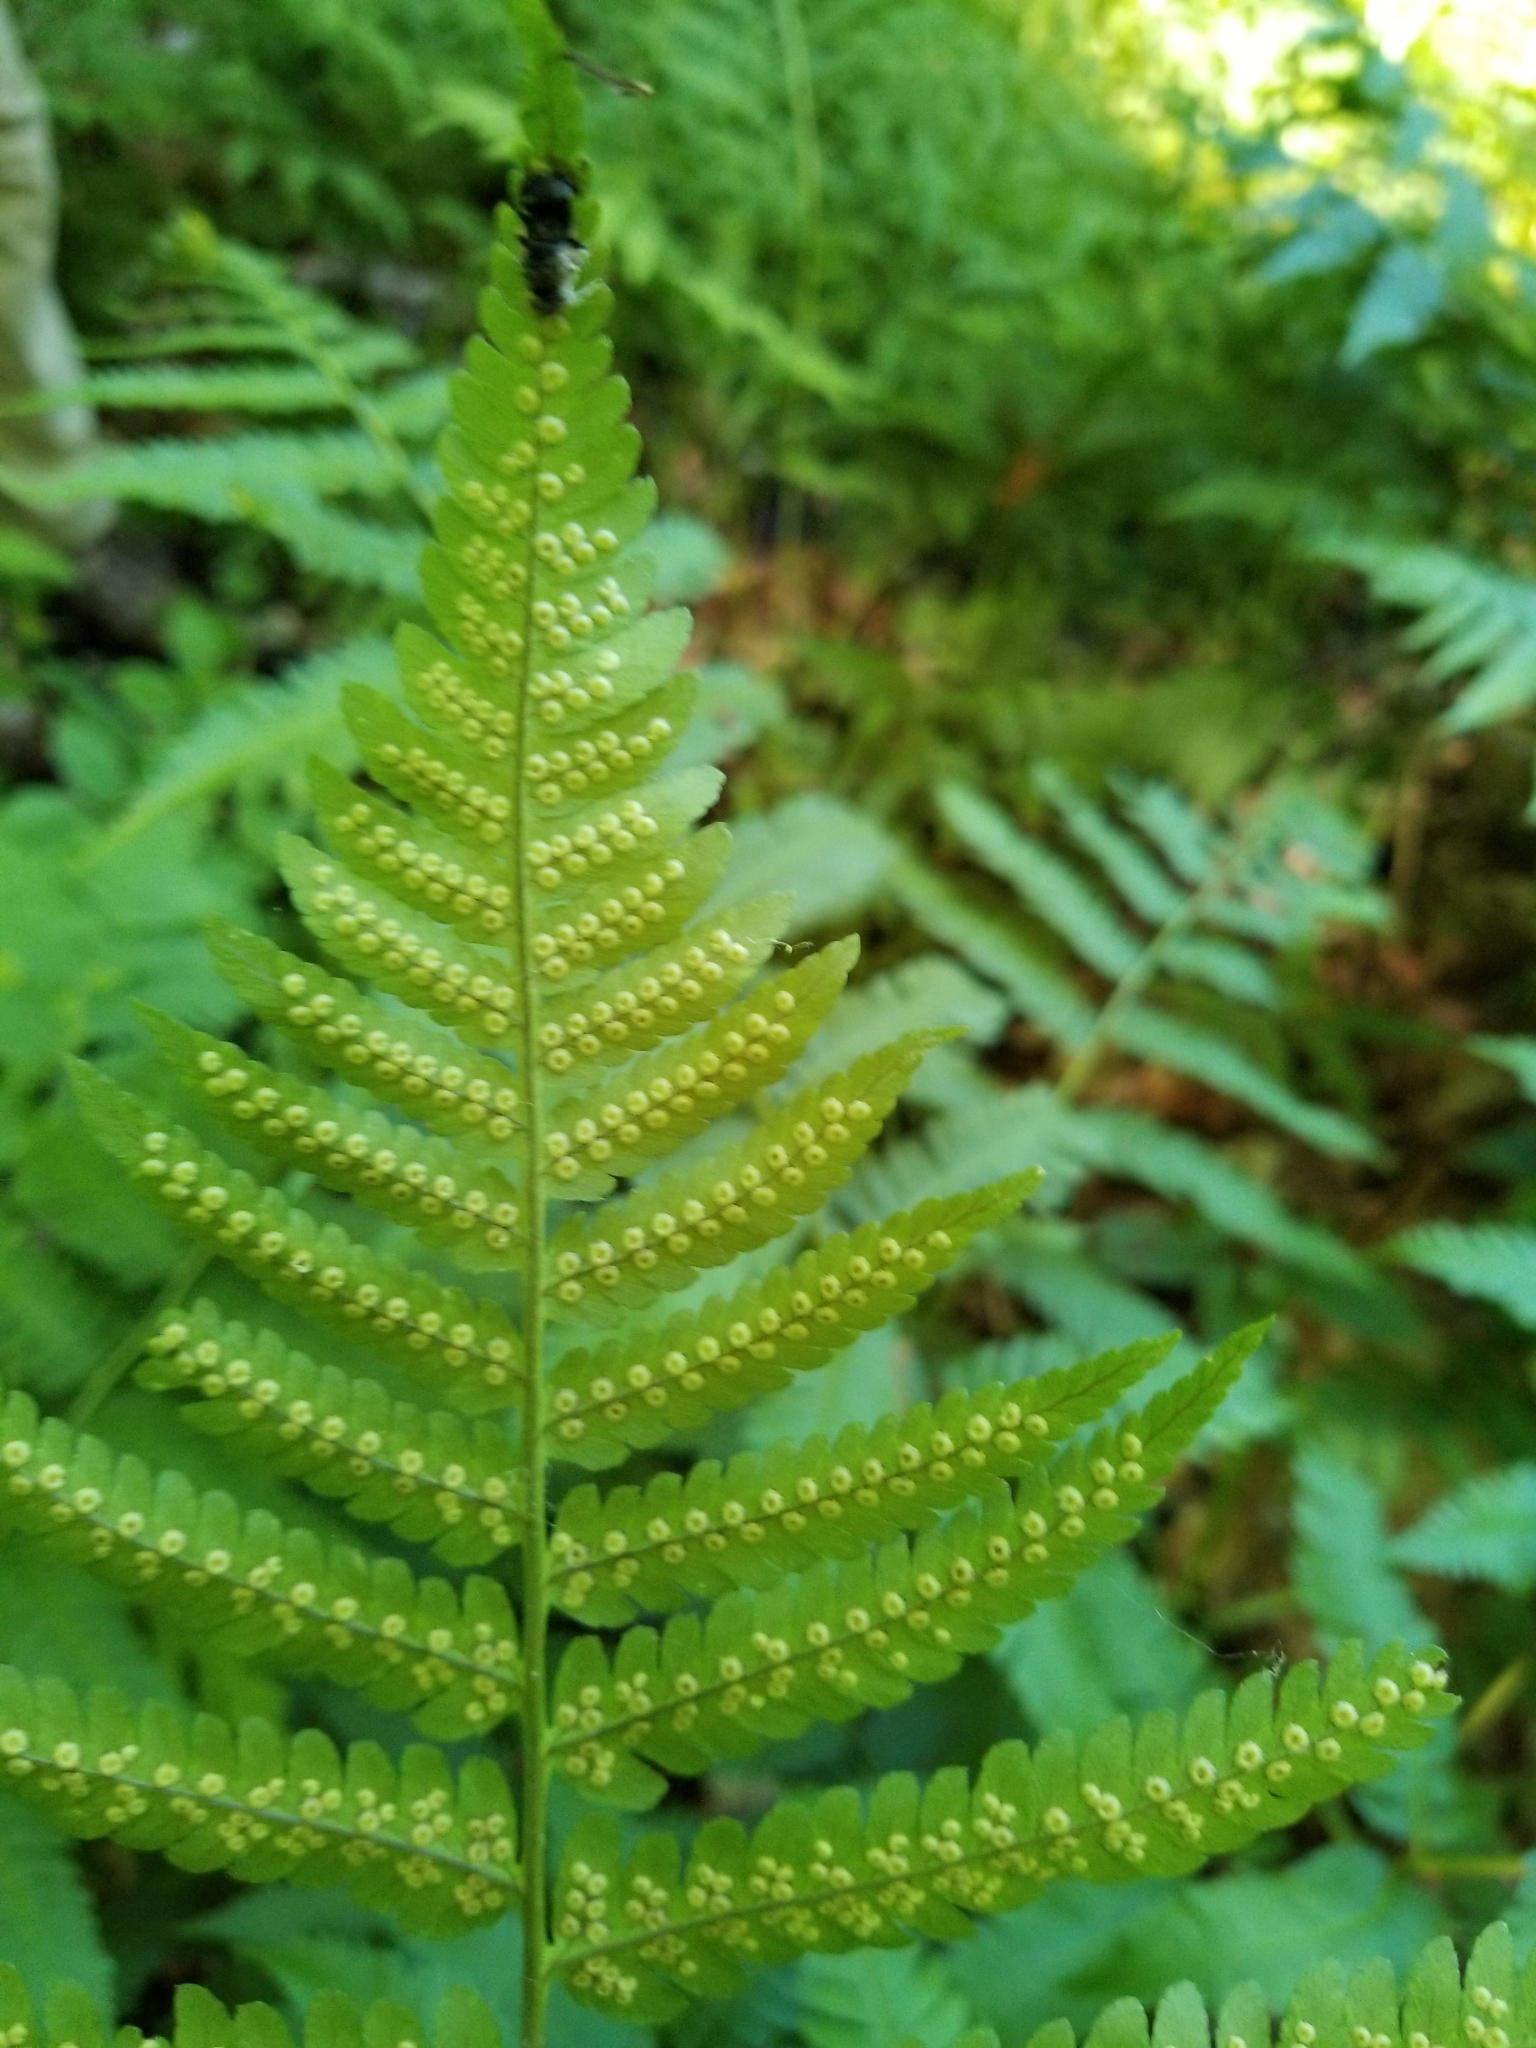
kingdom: Plantae
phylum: Tracheophyta
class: Polypodiopsida
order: Polypodiales
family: Dryopteridaceae
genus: Dryopteris
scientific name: Dryopteris goldieana
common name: Goldie's fern
